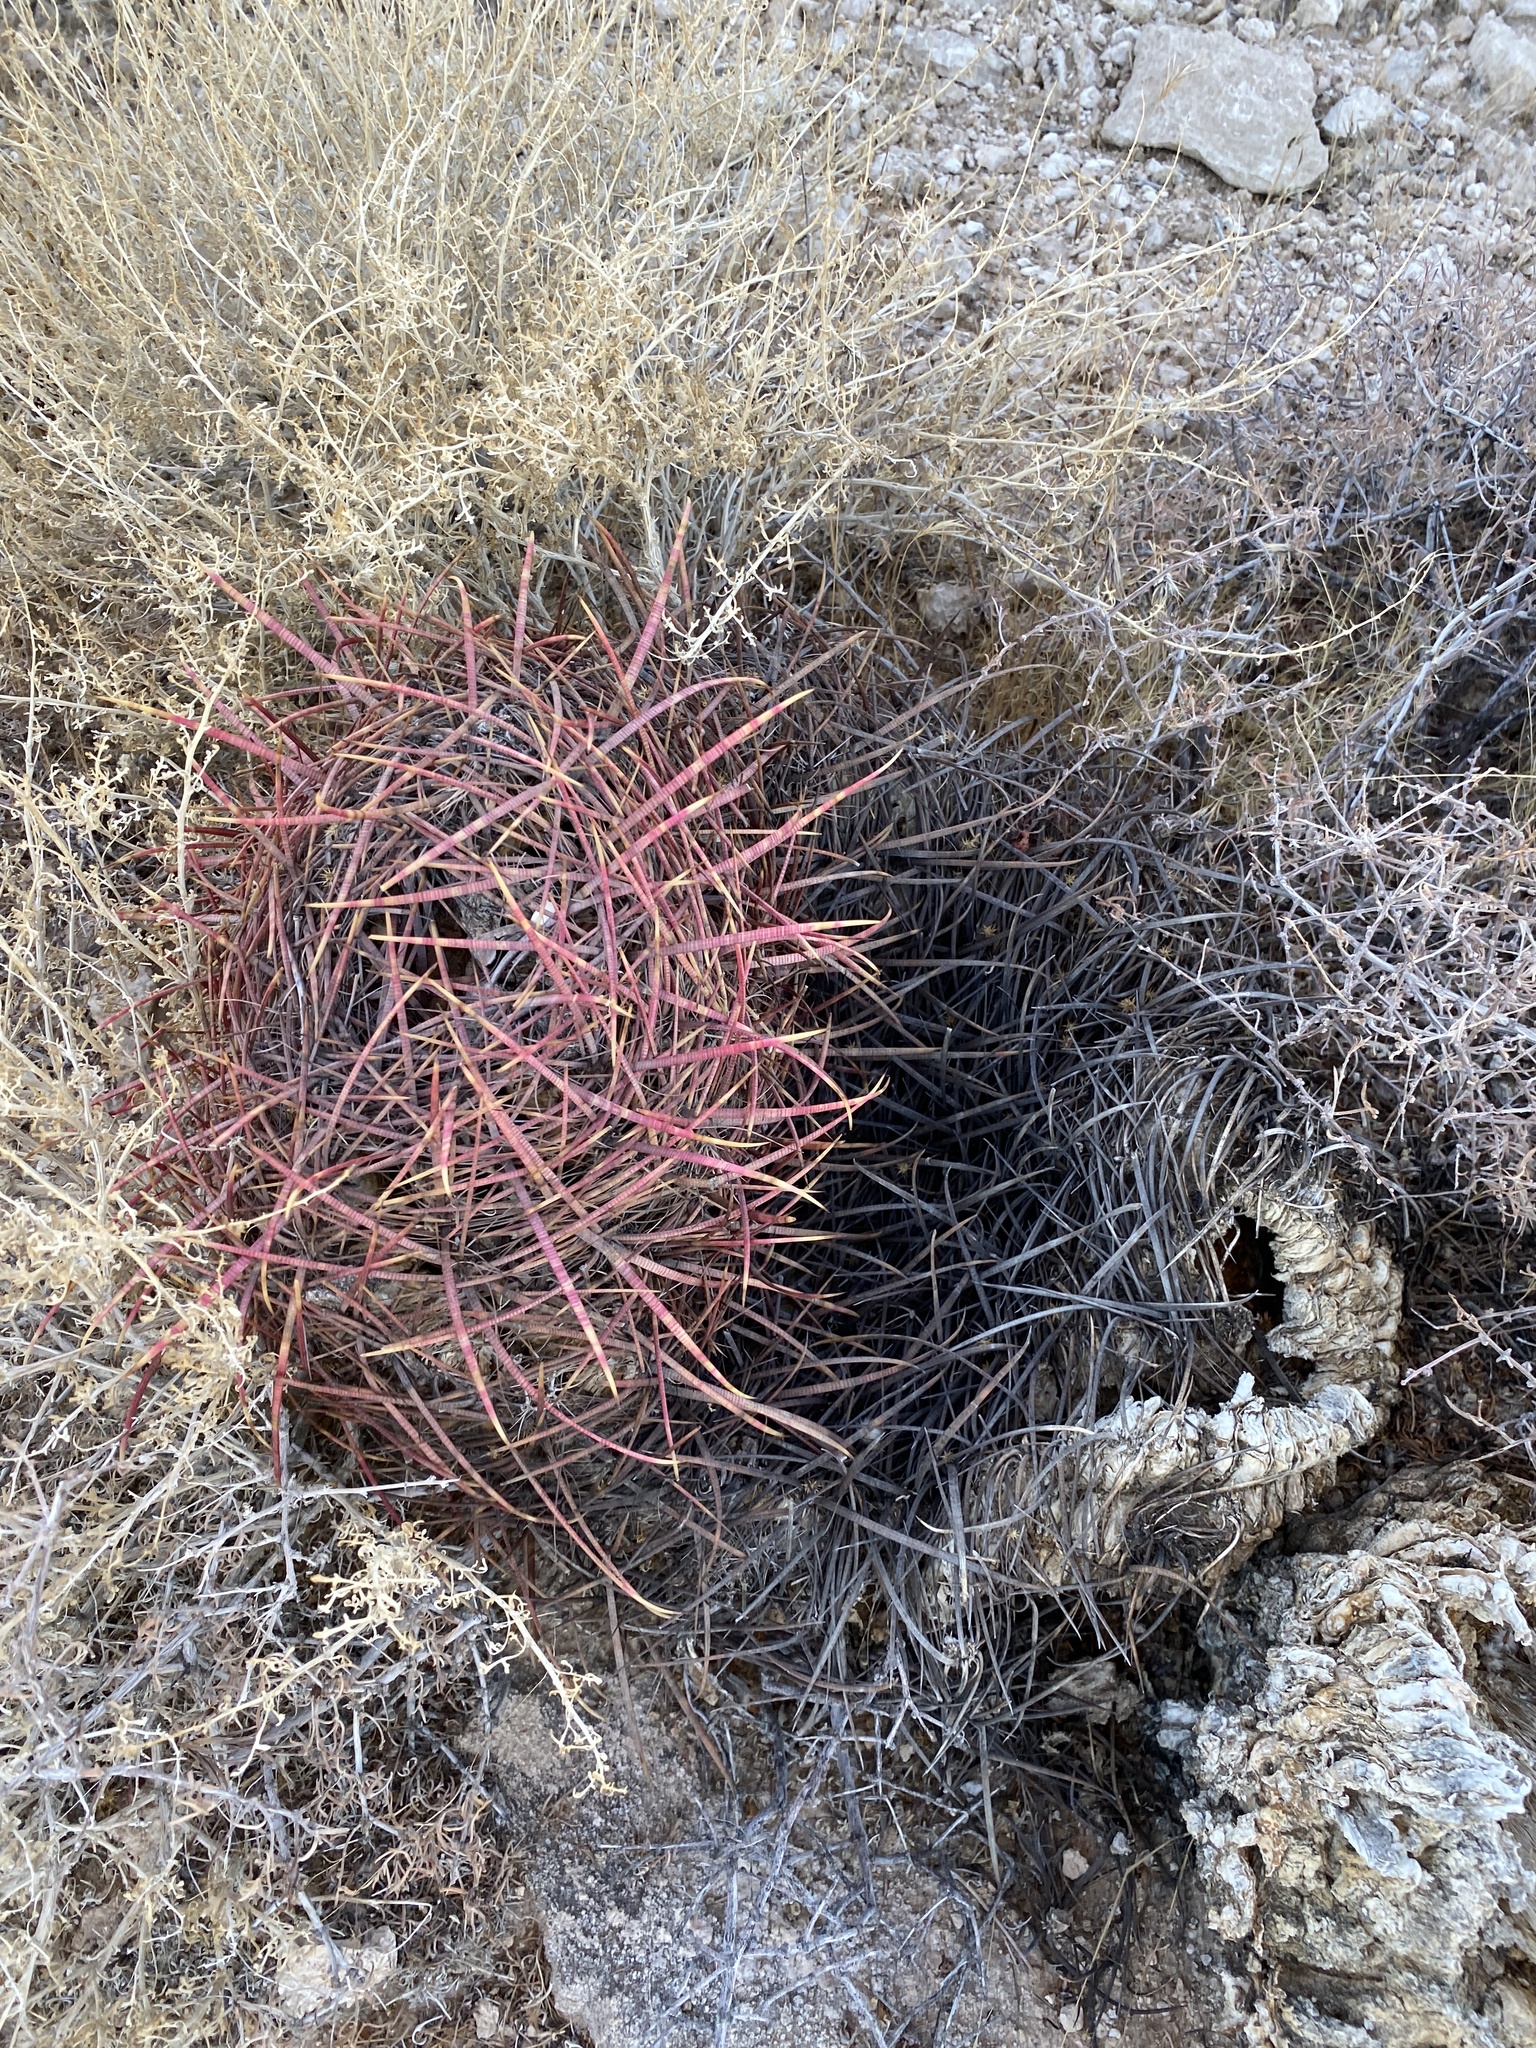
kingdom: Plantae
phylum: Tracheophyta
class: Magnoliopsida
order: Caryophyllales
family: Cactaceae
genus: Ferocactus
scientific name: Ferocactus cylindraceus
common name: California barrel cactus
